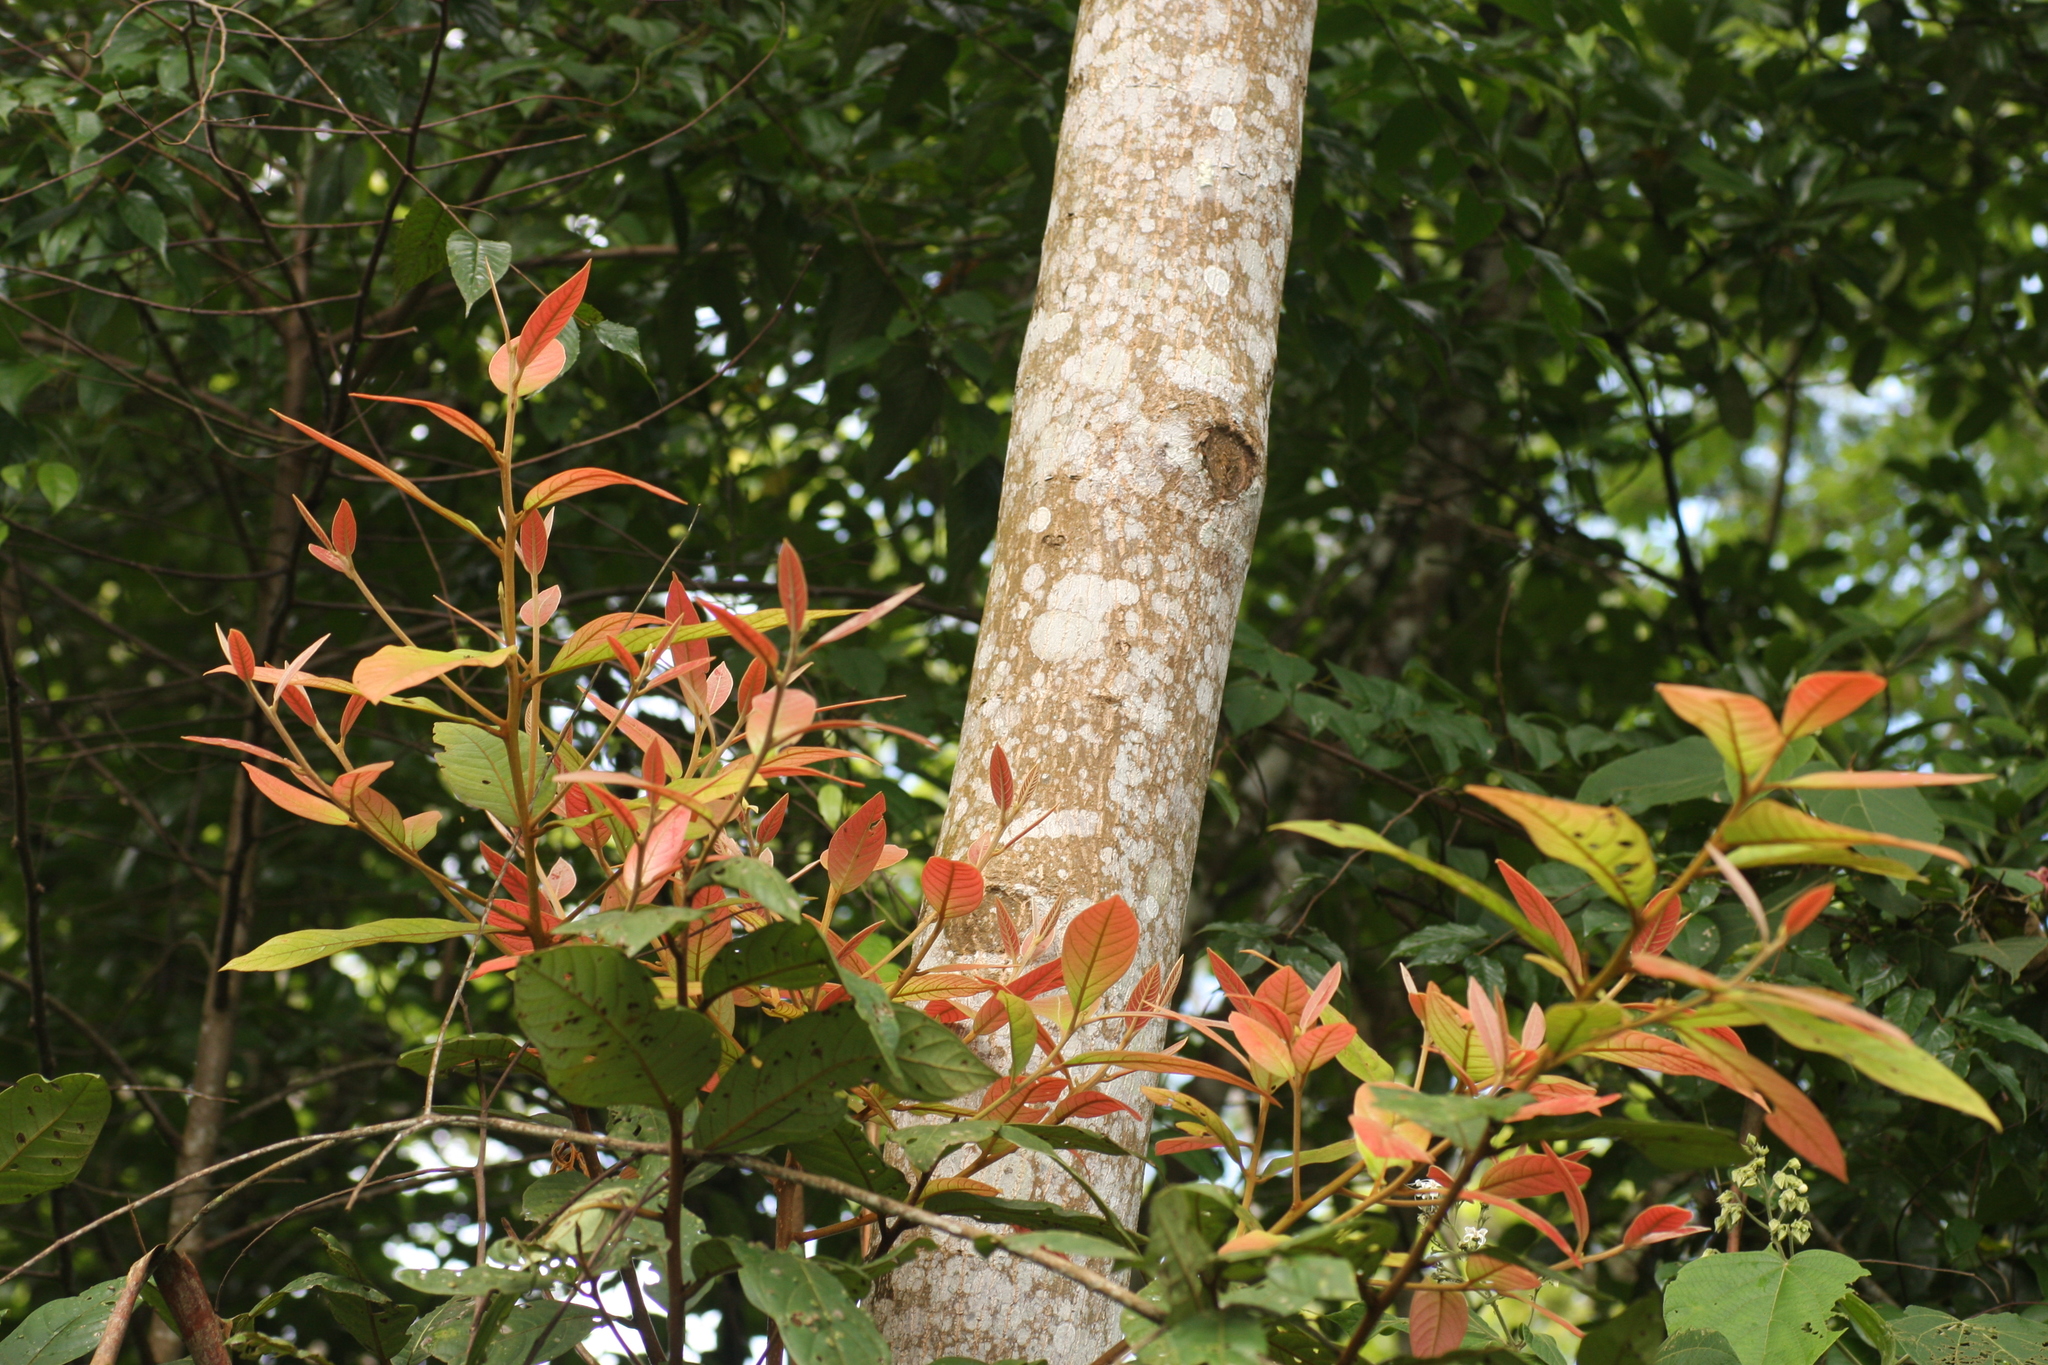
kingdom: Plantae
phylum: Tracheophyta
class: Magnoliopsida
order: Laurales
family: Lauraceae
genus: Litsea
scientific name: Litsea floribunda
